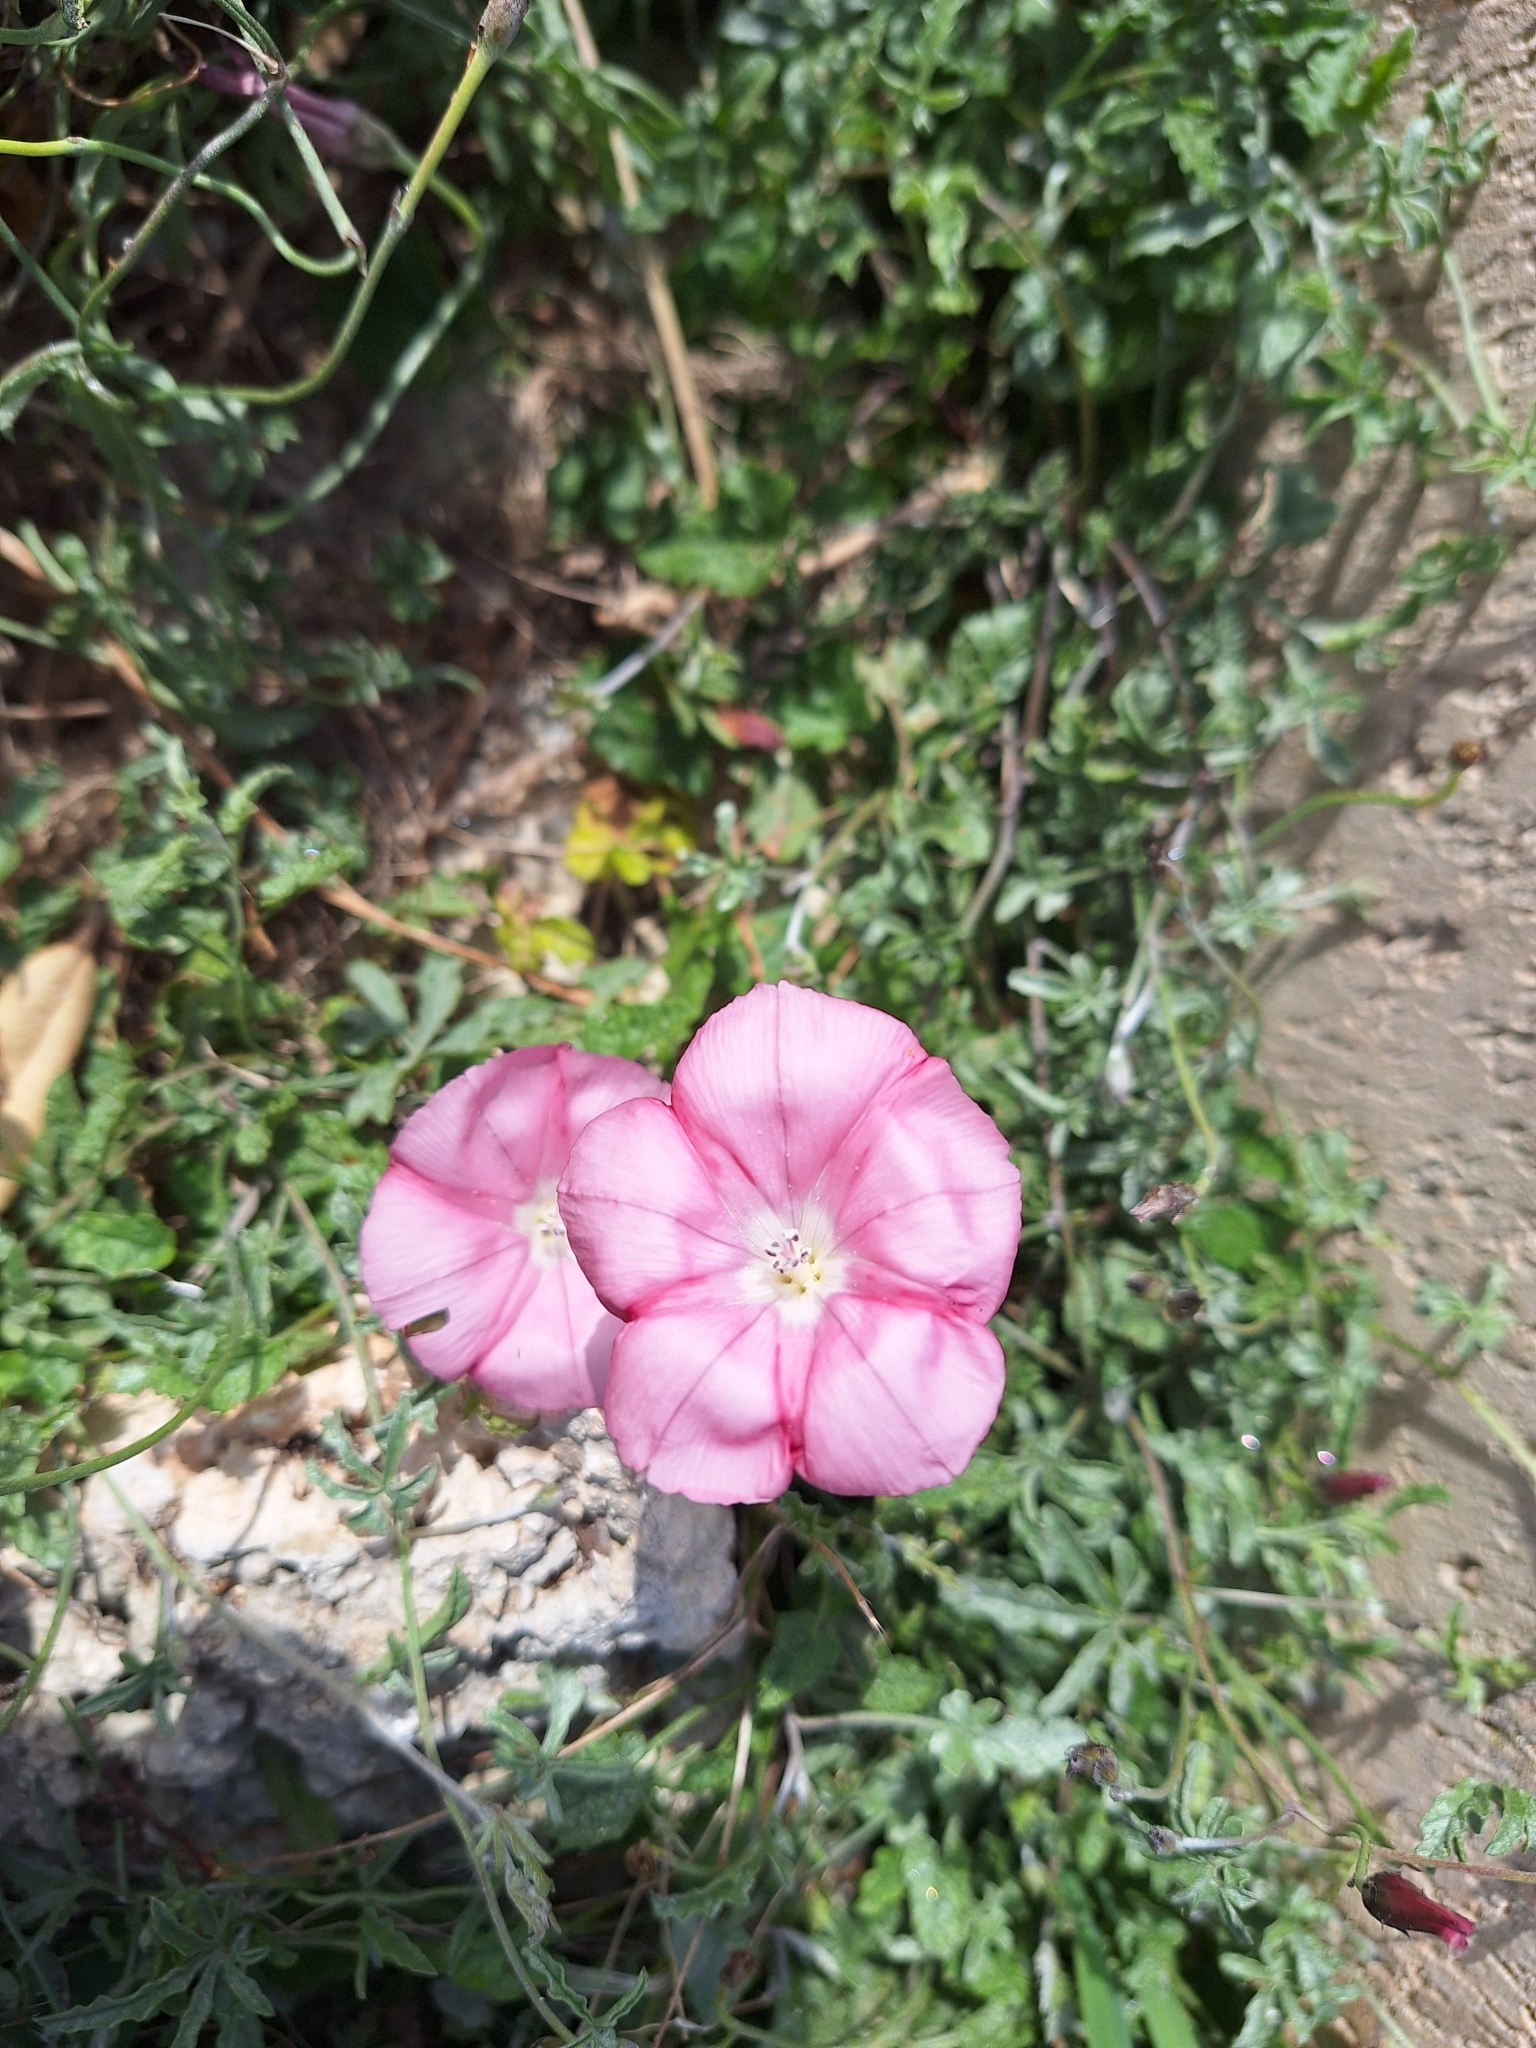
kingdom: Plantae
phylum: Tracheophyta
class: Magnoliopsida
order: Solanales
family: Convolvulaceae
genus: Convolvulus
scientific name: Convolvulus elegantissimus
